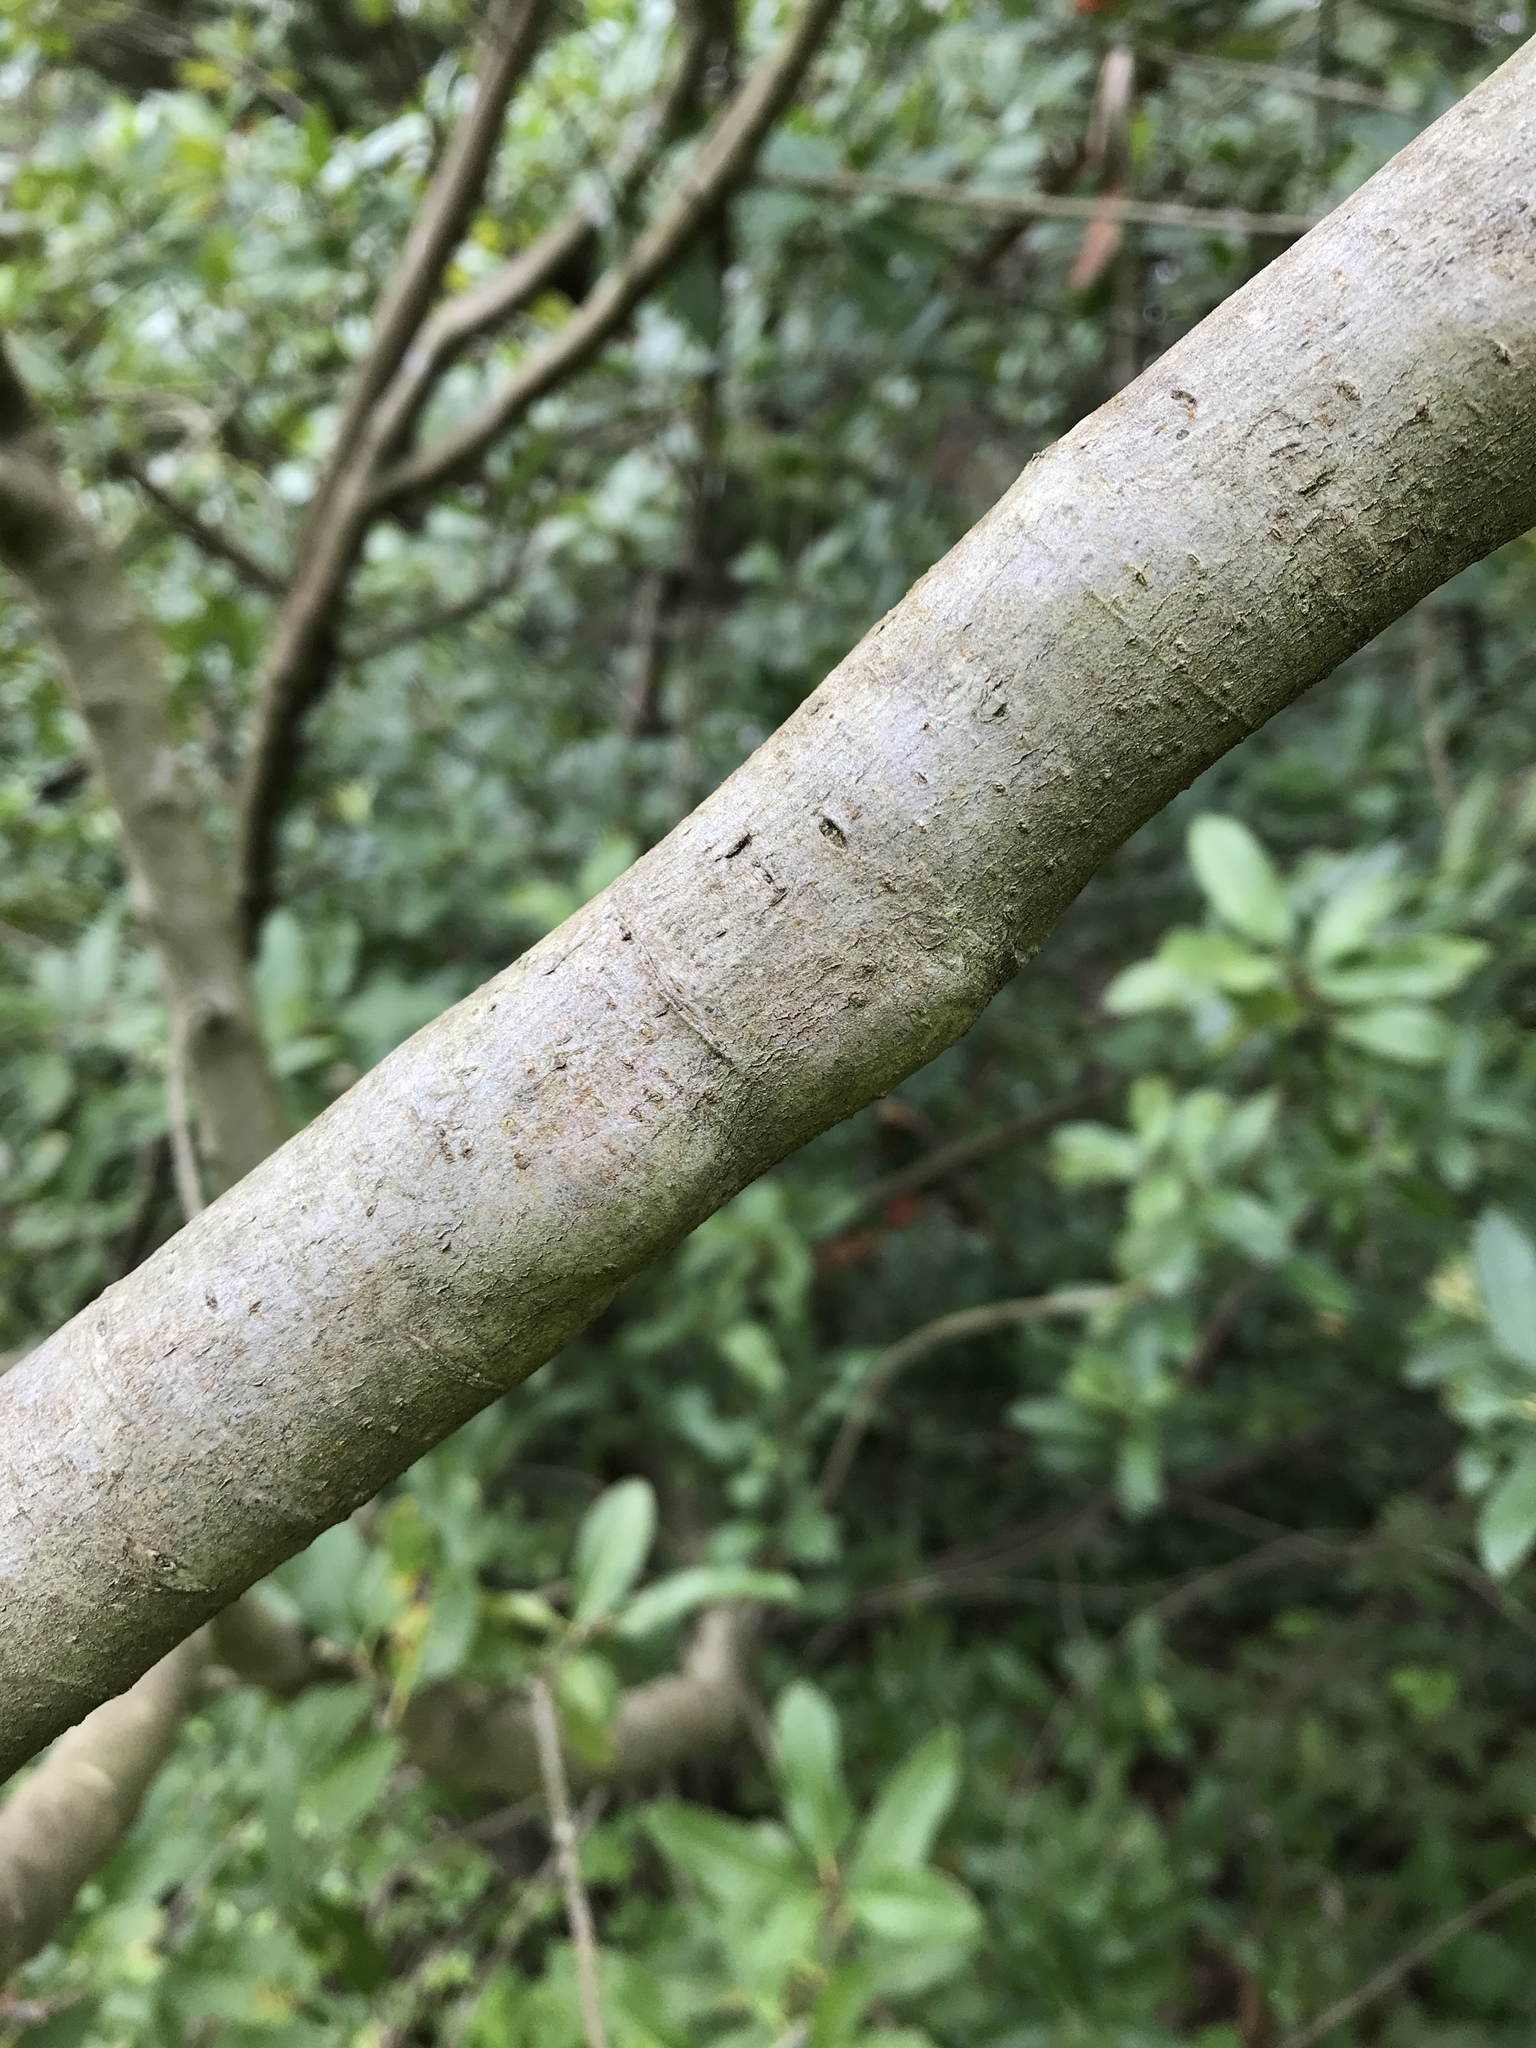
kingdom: Plantae
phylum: Tracheophyta
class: Magnoliopsida
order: Rosales
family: Rosaceae
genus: Heteromeles
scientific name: Heteromeles arbutifolia
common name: California-holly
